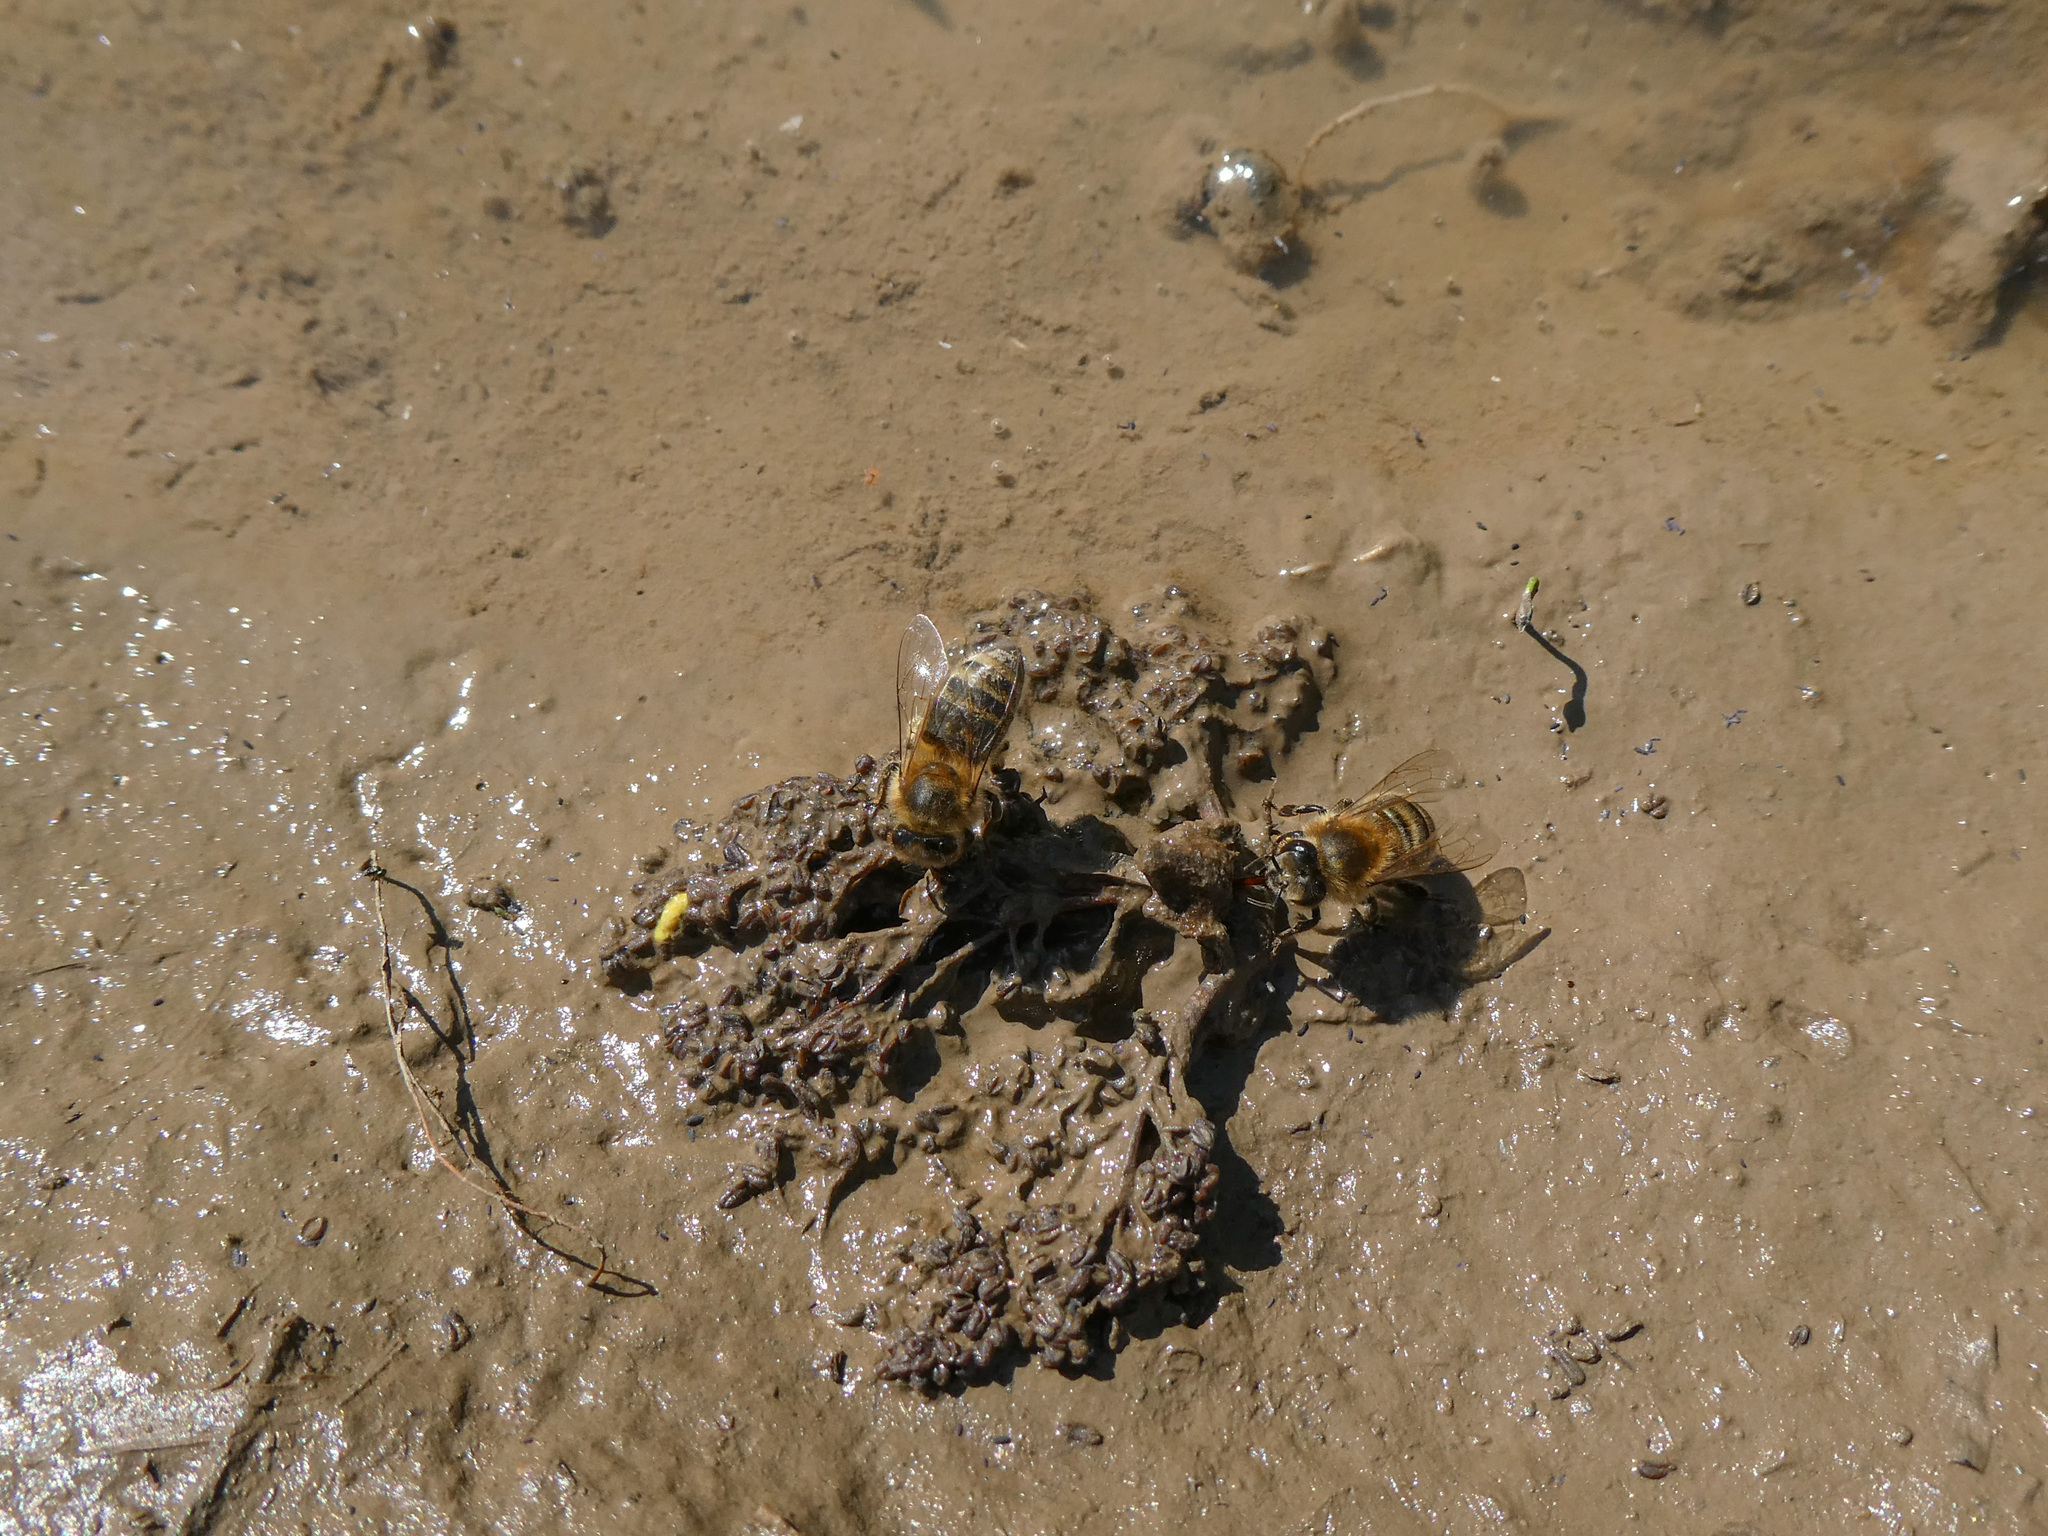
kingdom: Animalia
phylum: Arthropoda
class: Insecta
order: Hymenoptera
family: Apidae
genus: Apis
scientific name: Apis mellifera
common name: Honey bee
